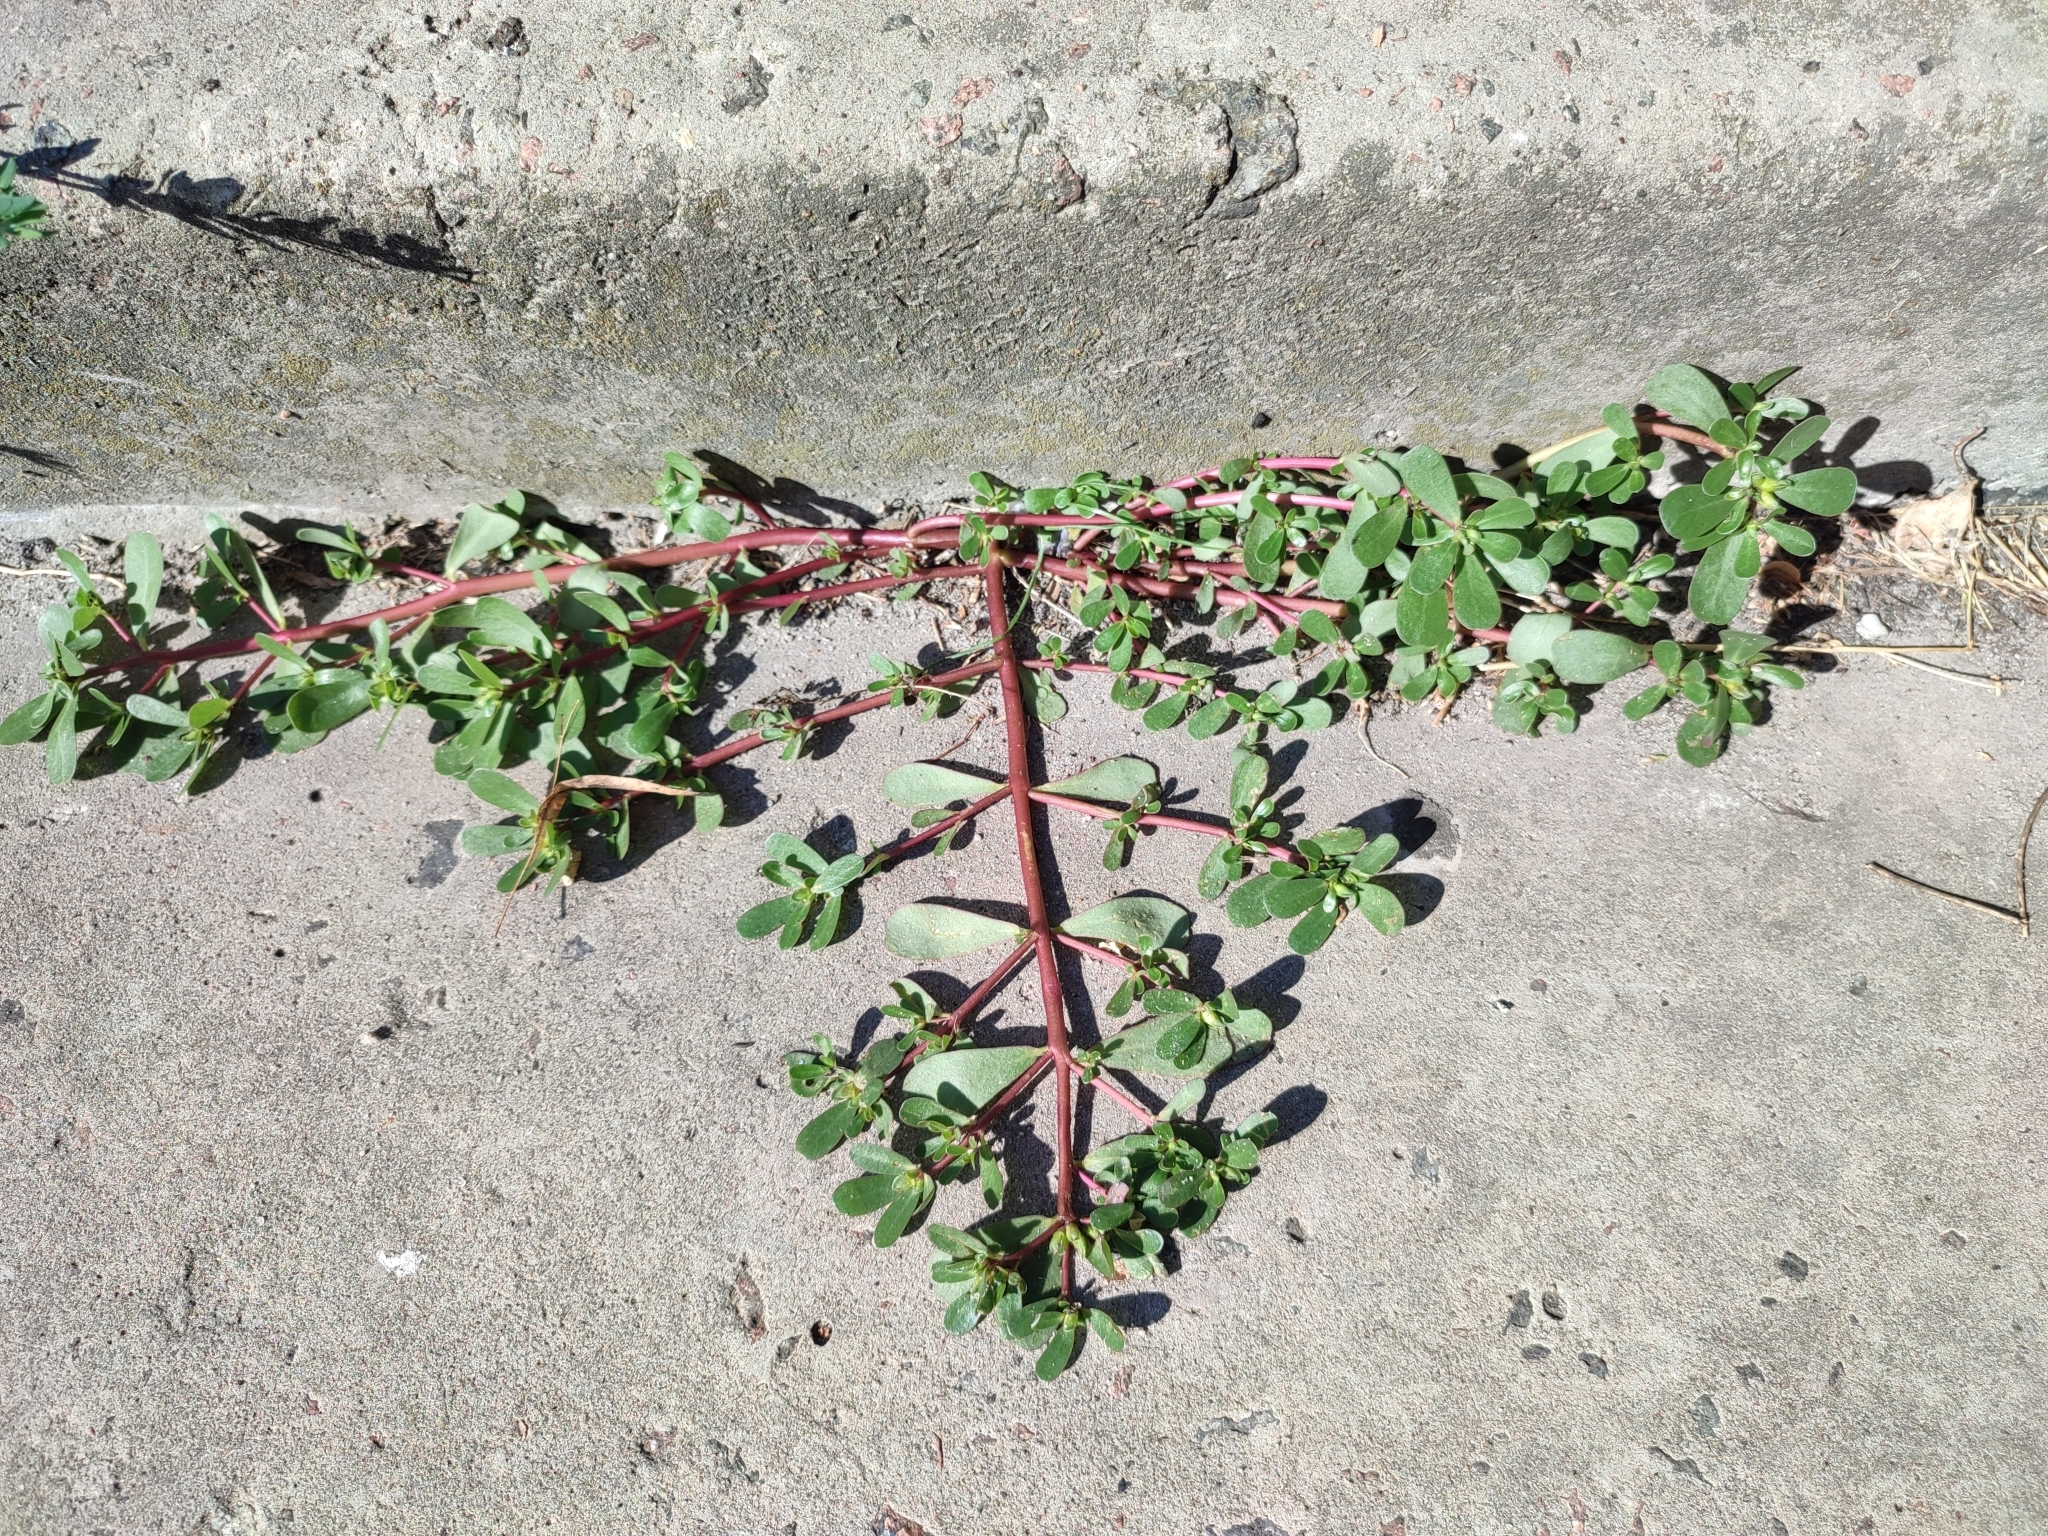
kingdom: Plantae
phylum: Tracheophyta
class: Magnoliopsida
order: Caryophyllales
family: Portulacaceae
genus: Portulaca
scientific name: Portulaca oleracea
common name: Common purslane
